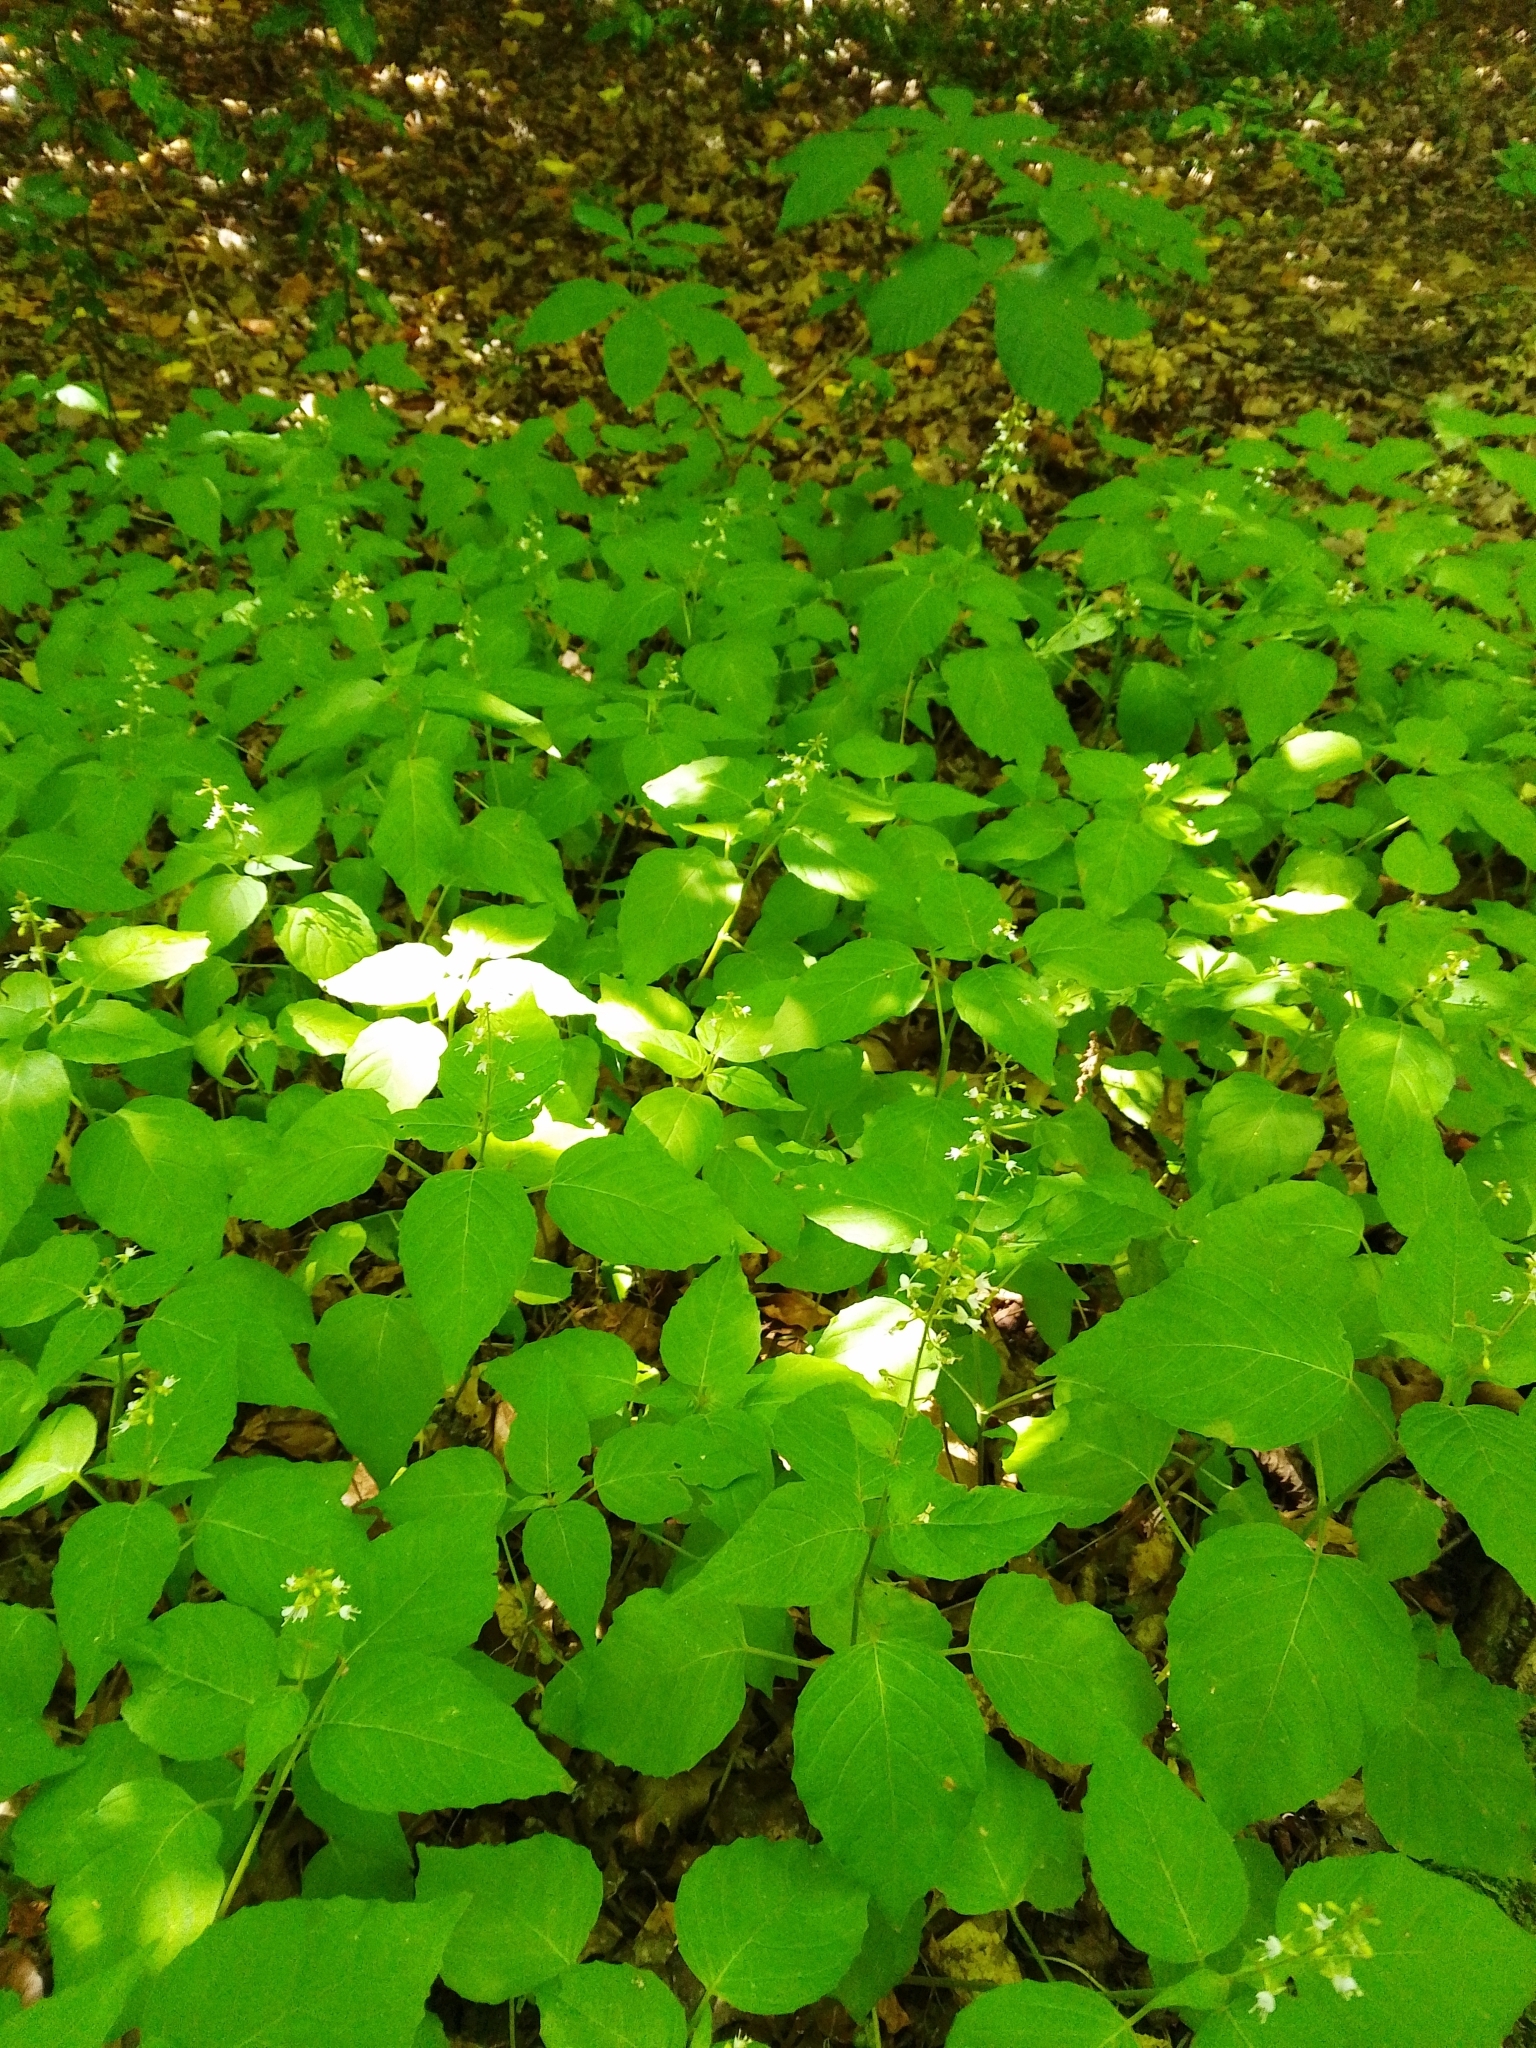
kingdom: Plantae
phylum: Tracheophyta
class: Magnoliopsida
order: Myrtales
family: Onagraceae
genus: Circaea
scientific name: Circaea lutetiana
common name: Enchanter's-nightshade
